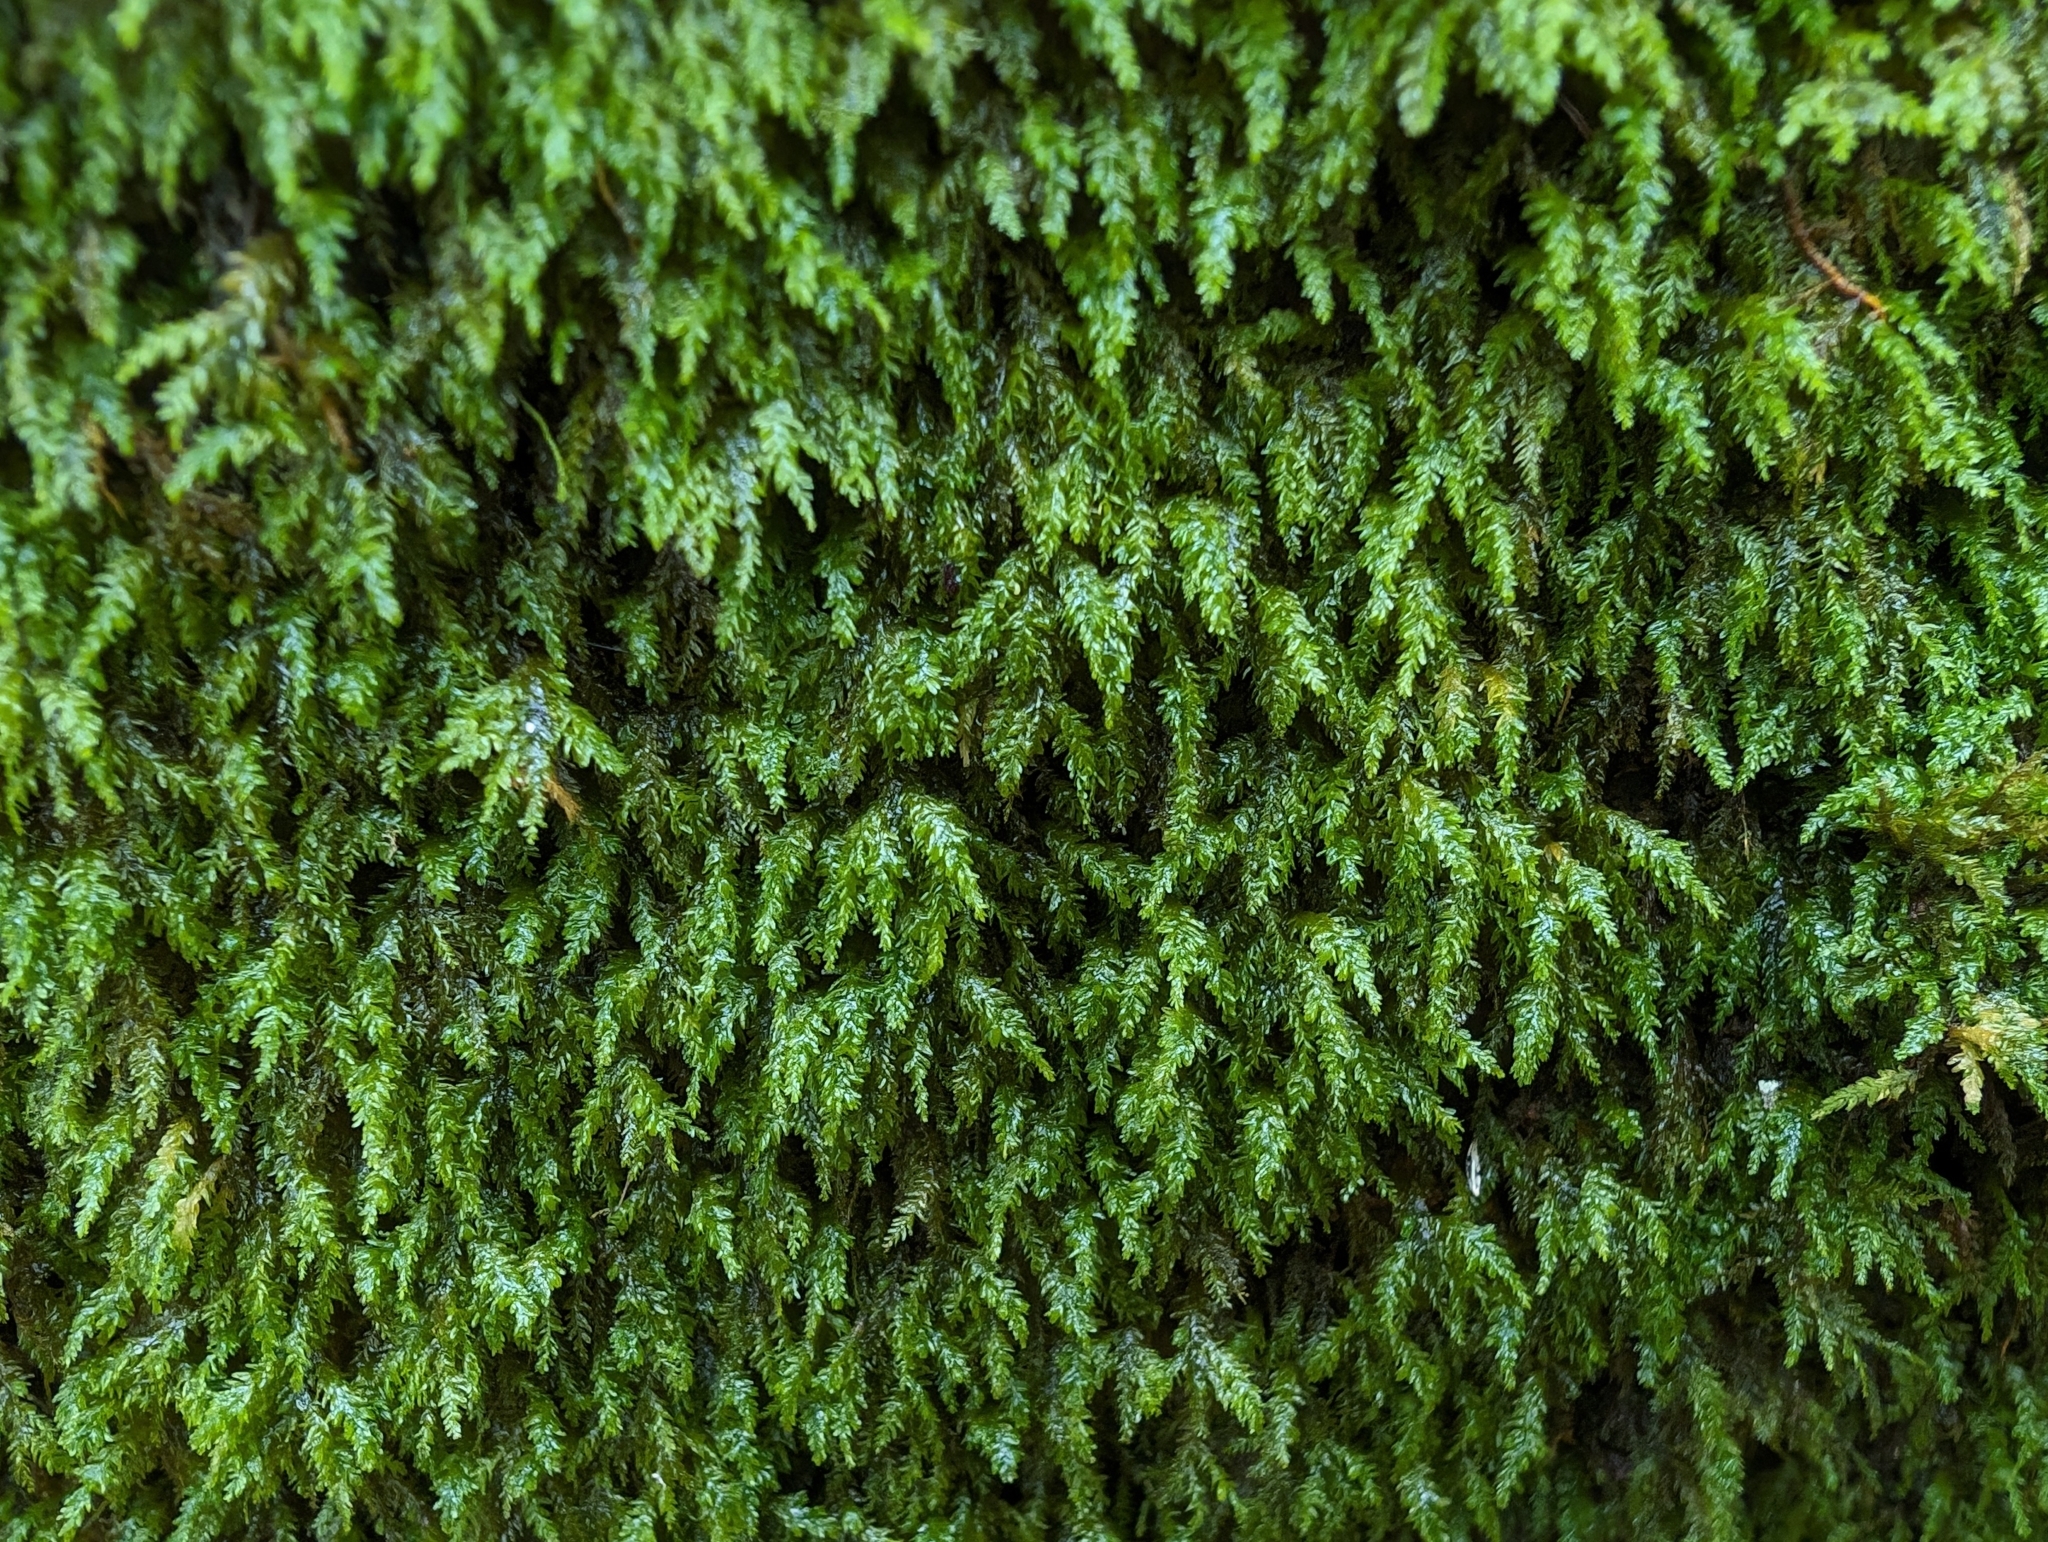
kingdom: Plantae
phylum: Bryophyta
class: Bryopsida
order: Hypnales
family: Neckeraceae
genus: Pseudanomodon
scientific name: Pseudanomodon attenuatus
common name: Tree-skirt moss
